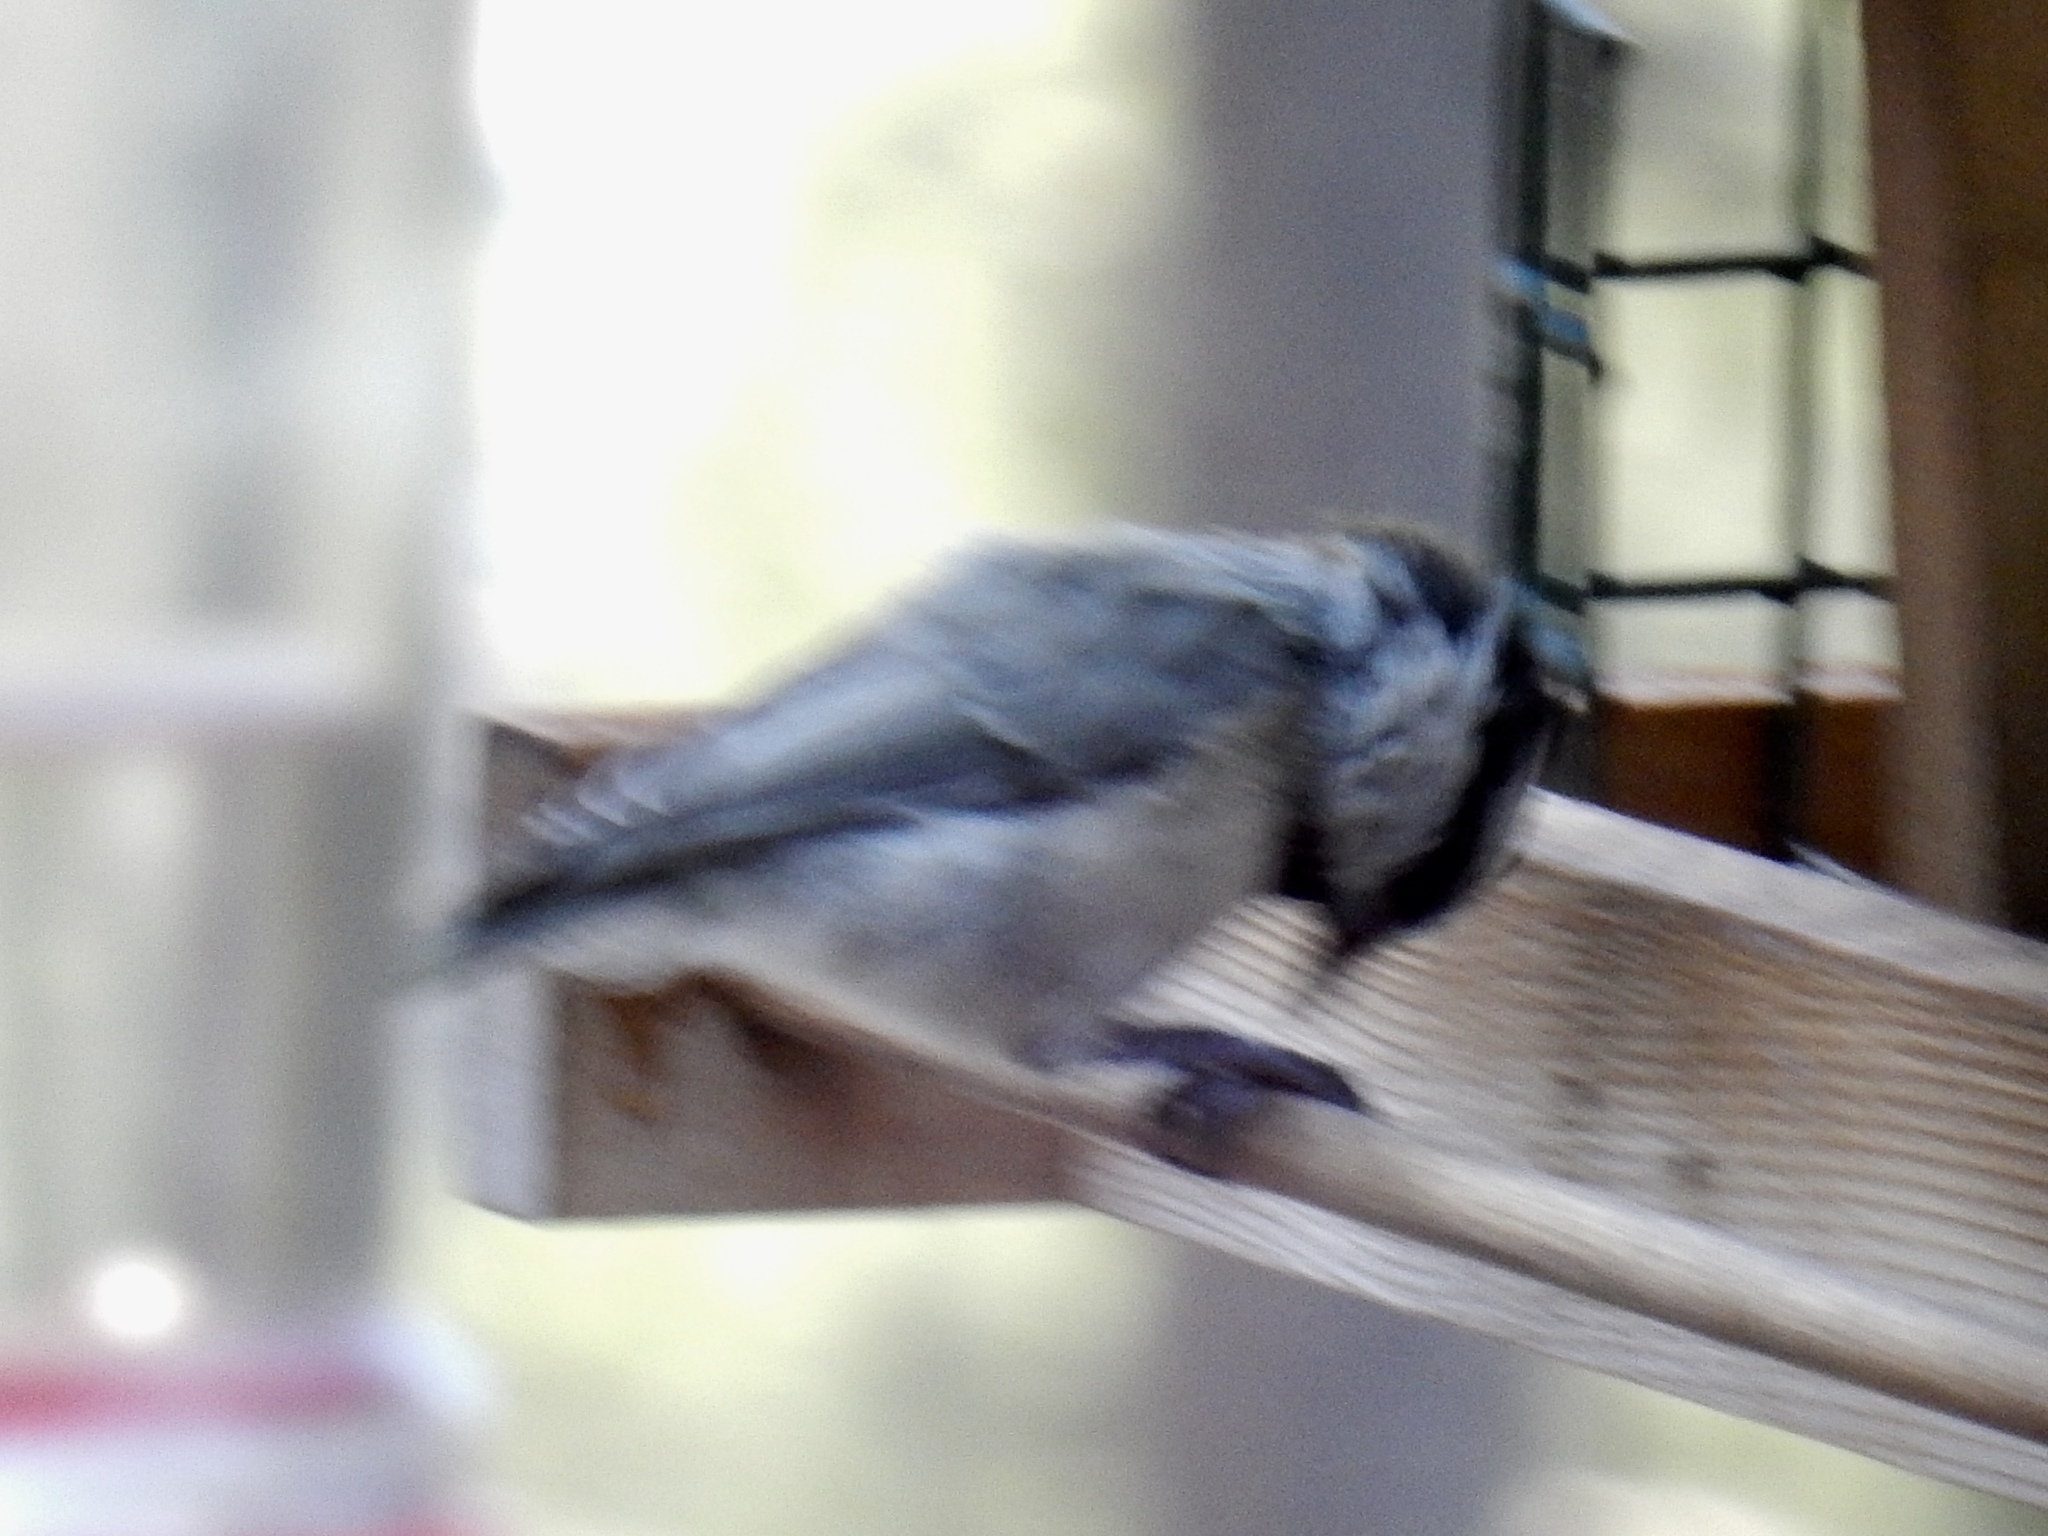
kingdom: Animalia
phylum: Chordata
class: Aves
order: Passeriformes
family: Paridae
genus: Poecile
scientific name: Poecile gambeli
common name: Mountain chickadee
